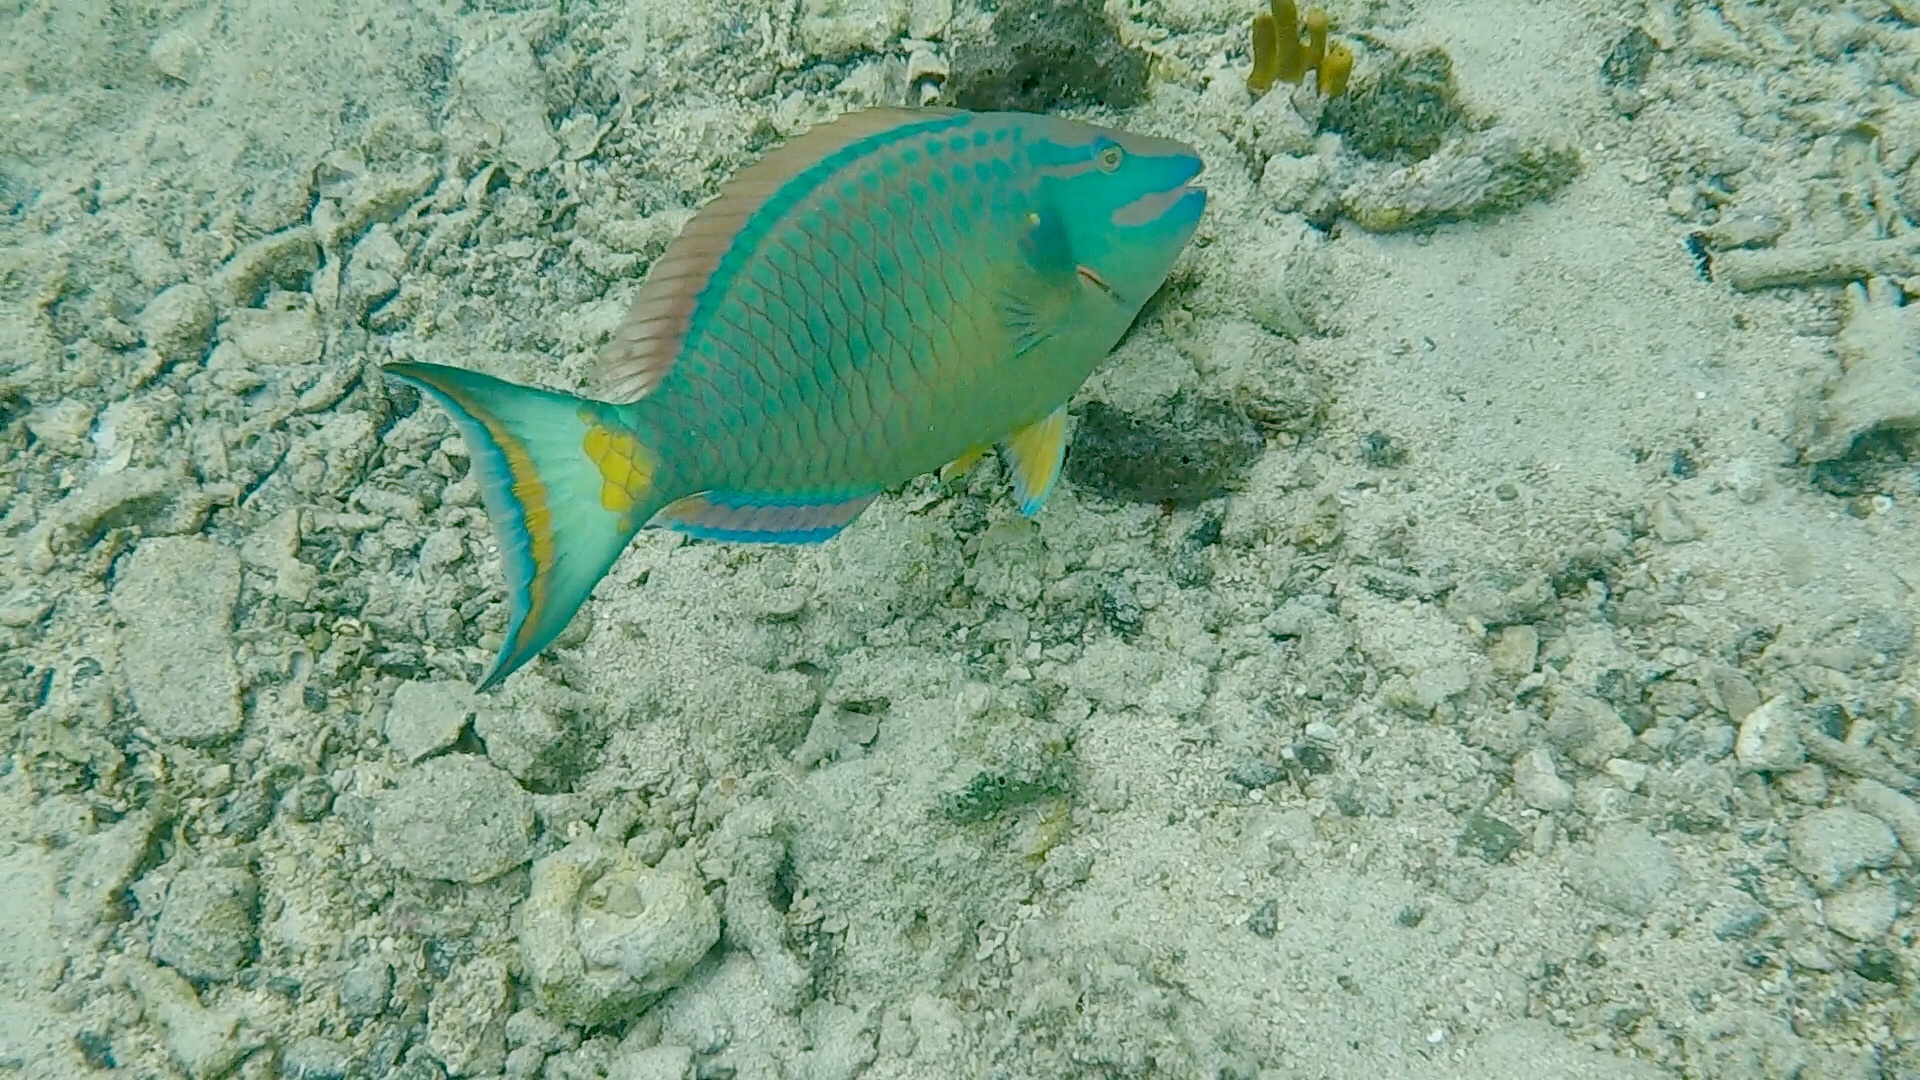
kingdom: Animalia
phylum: Chordata
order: Perciformes
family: Scaridae
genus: Sparisoma
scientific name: Sparisoma viride
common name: Stoplight parrotfish
